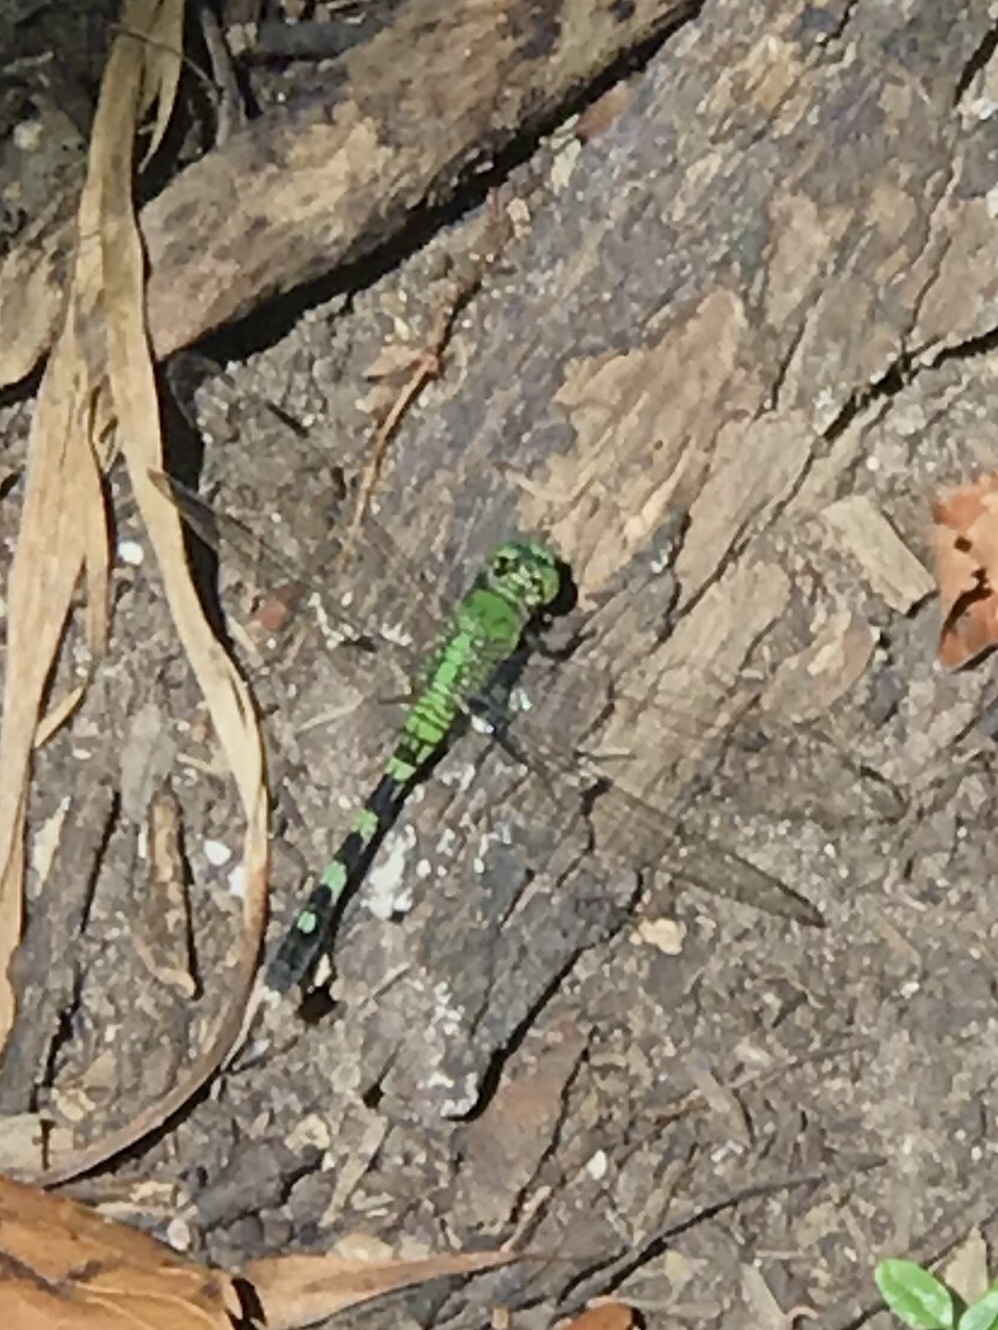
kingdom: Animalia
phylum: Arthropoda
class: Insecta
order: Odonata
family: Libellulidae
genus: Erythemis
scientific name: Erythemis simplicicollis
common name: Eastern pondhawk
